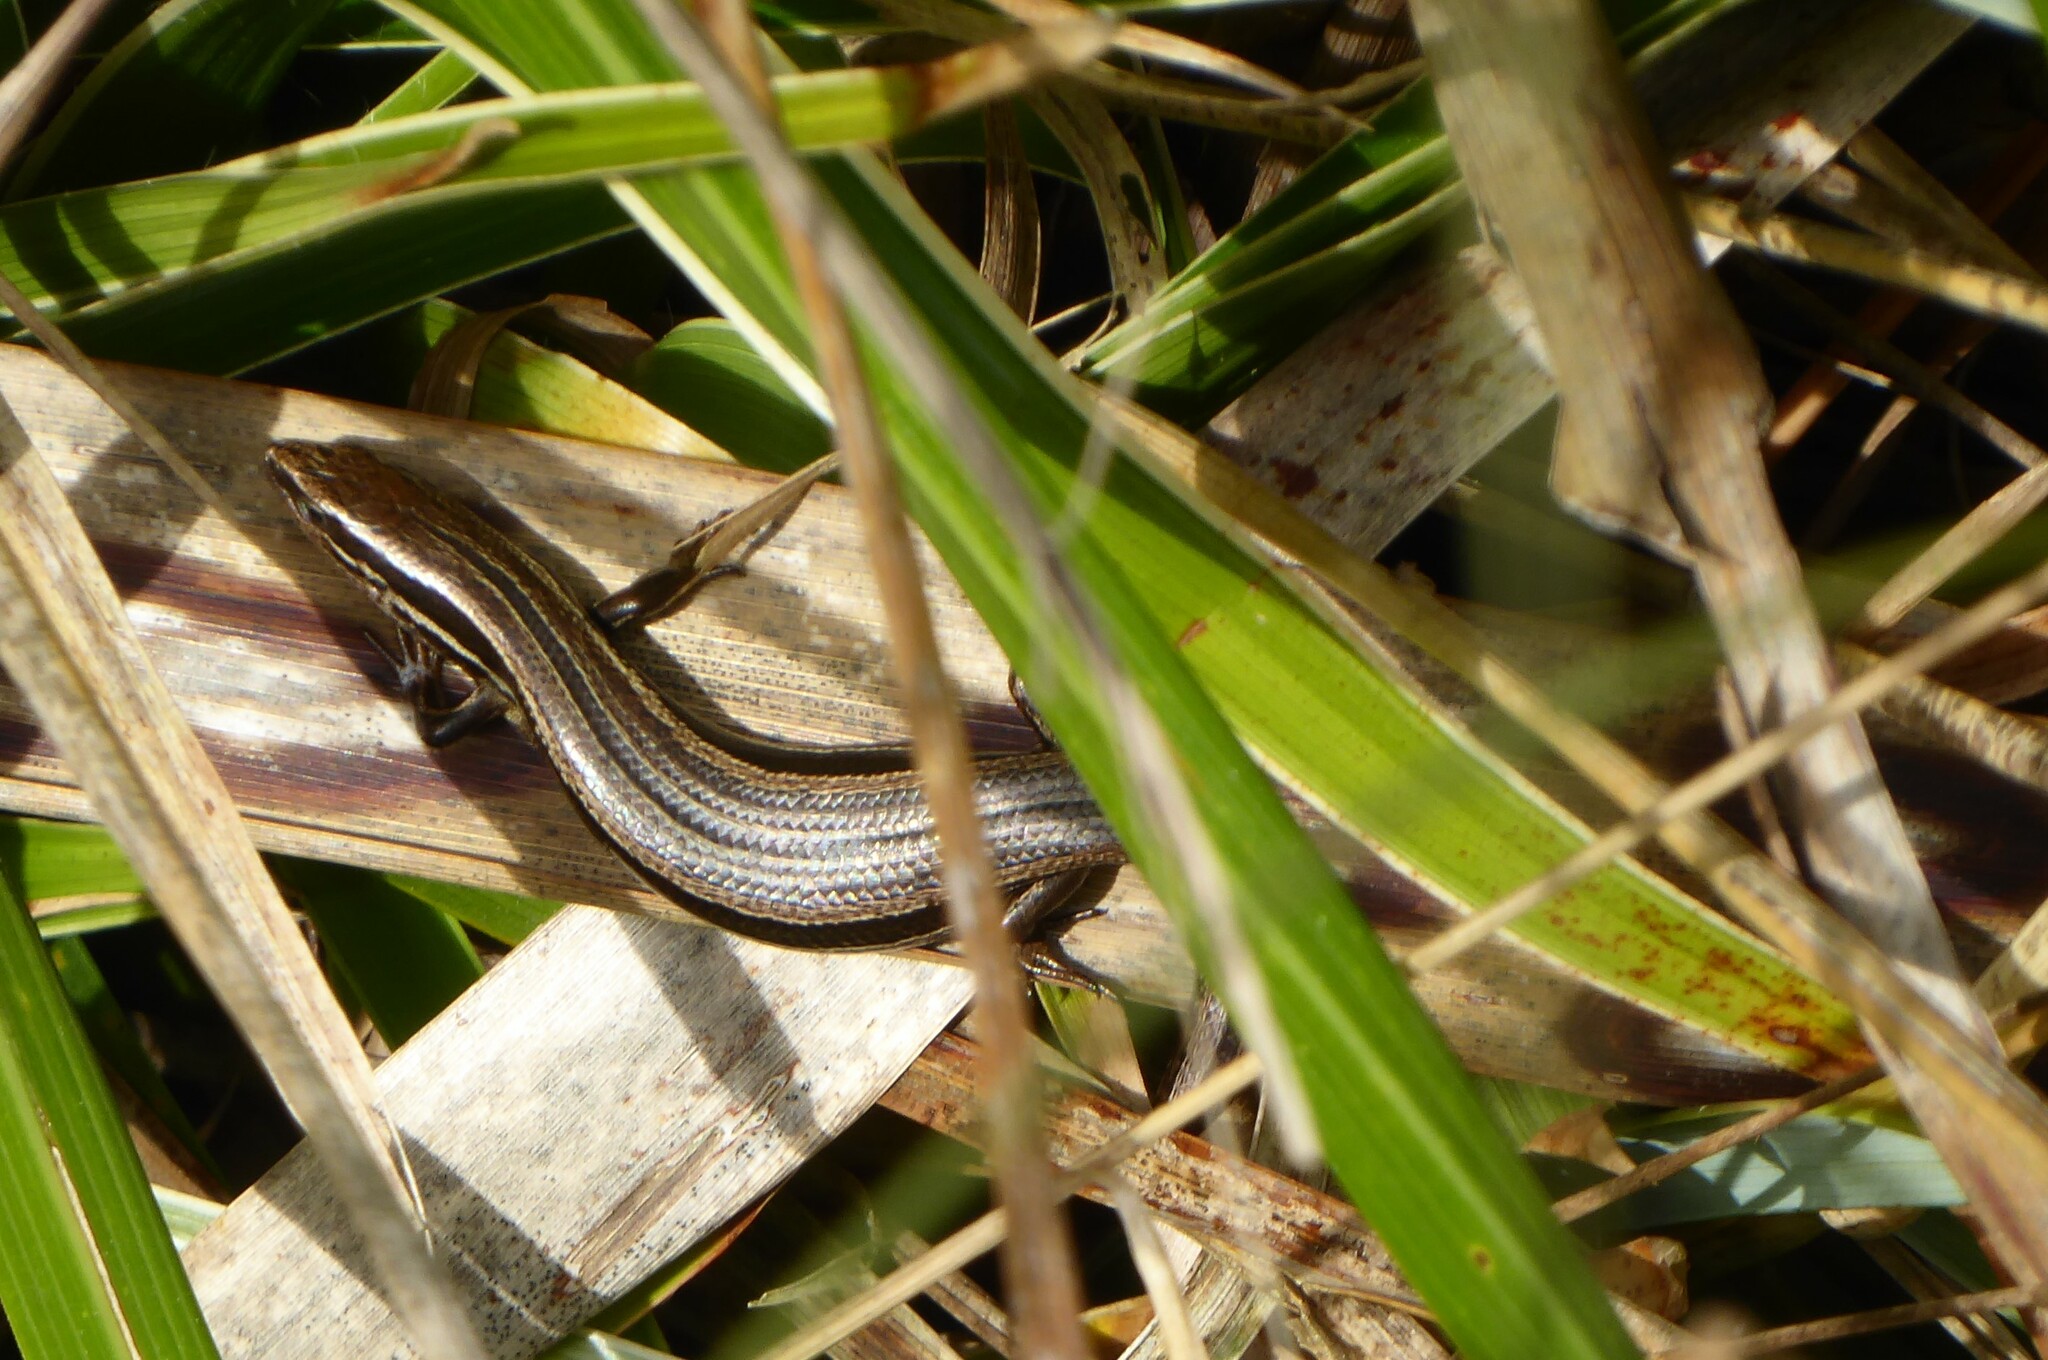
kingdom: Animalia
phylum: Chordata
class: Squamata
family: Scincidae
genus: Oligosoma
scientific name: Oligosoma polychroma
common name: Common new zealand skink
